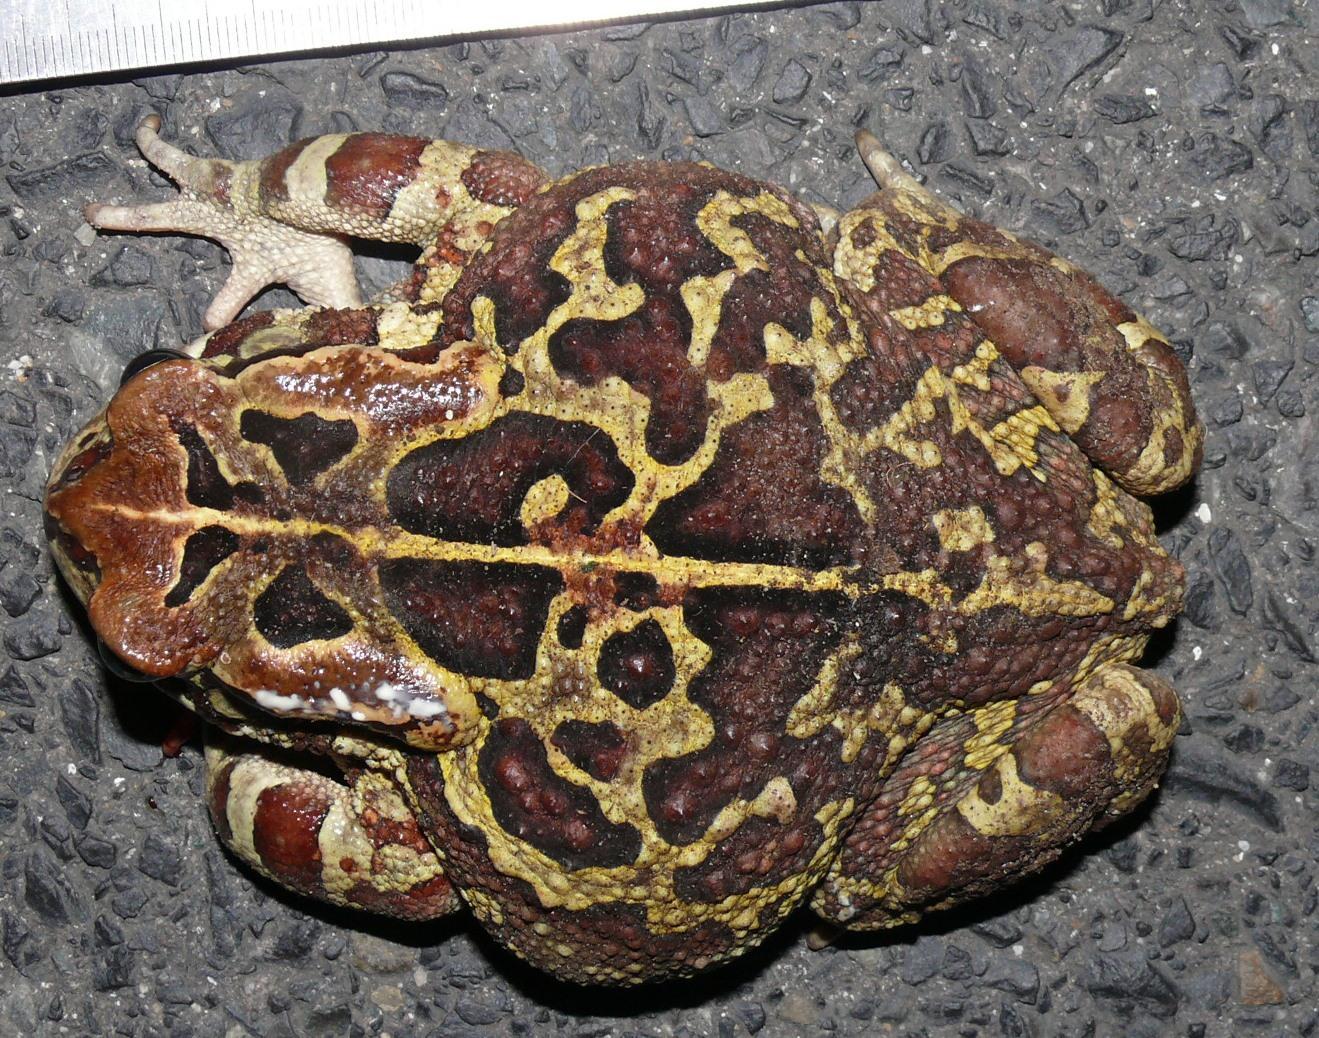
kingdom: Animalia
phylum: Chordata
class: Amphibia
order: Anura
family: Bufonidae
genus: Sclerophrys
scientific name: Sclerophrys pantherina
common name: Panther toad
